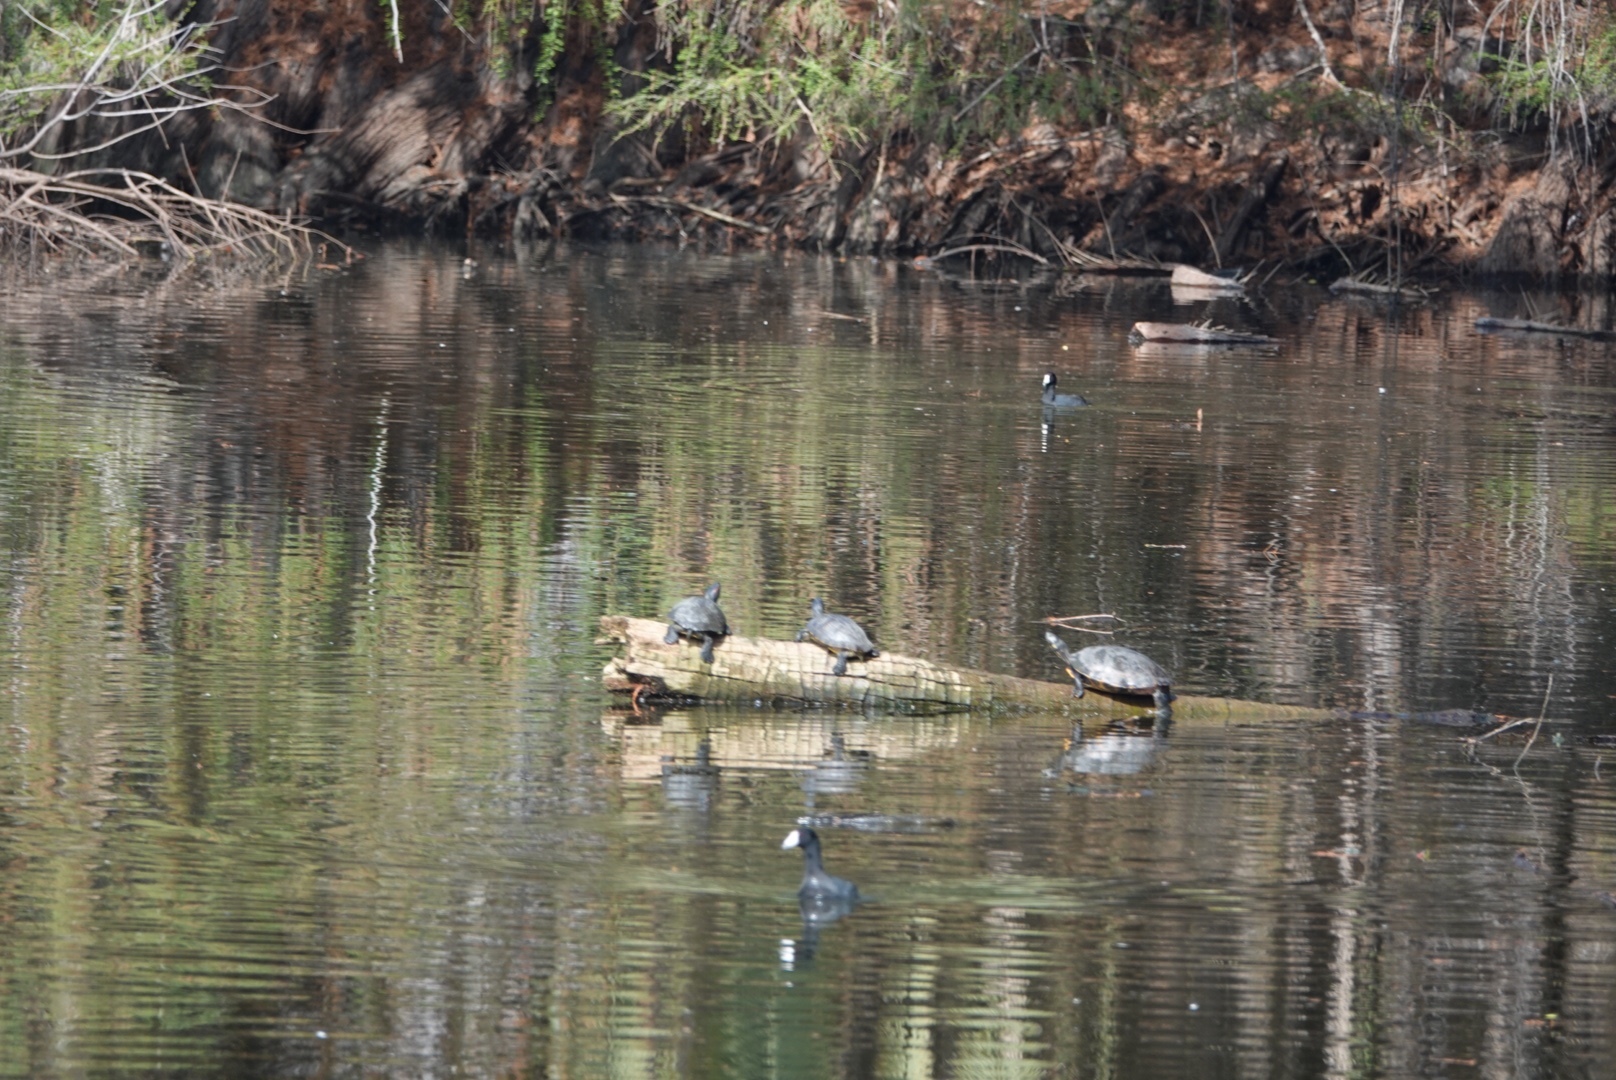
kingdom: Animalia
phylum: Chordata
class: Testudines
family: Emydidae
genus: Trachemys
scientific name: Trachemys scripta
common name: Slider
